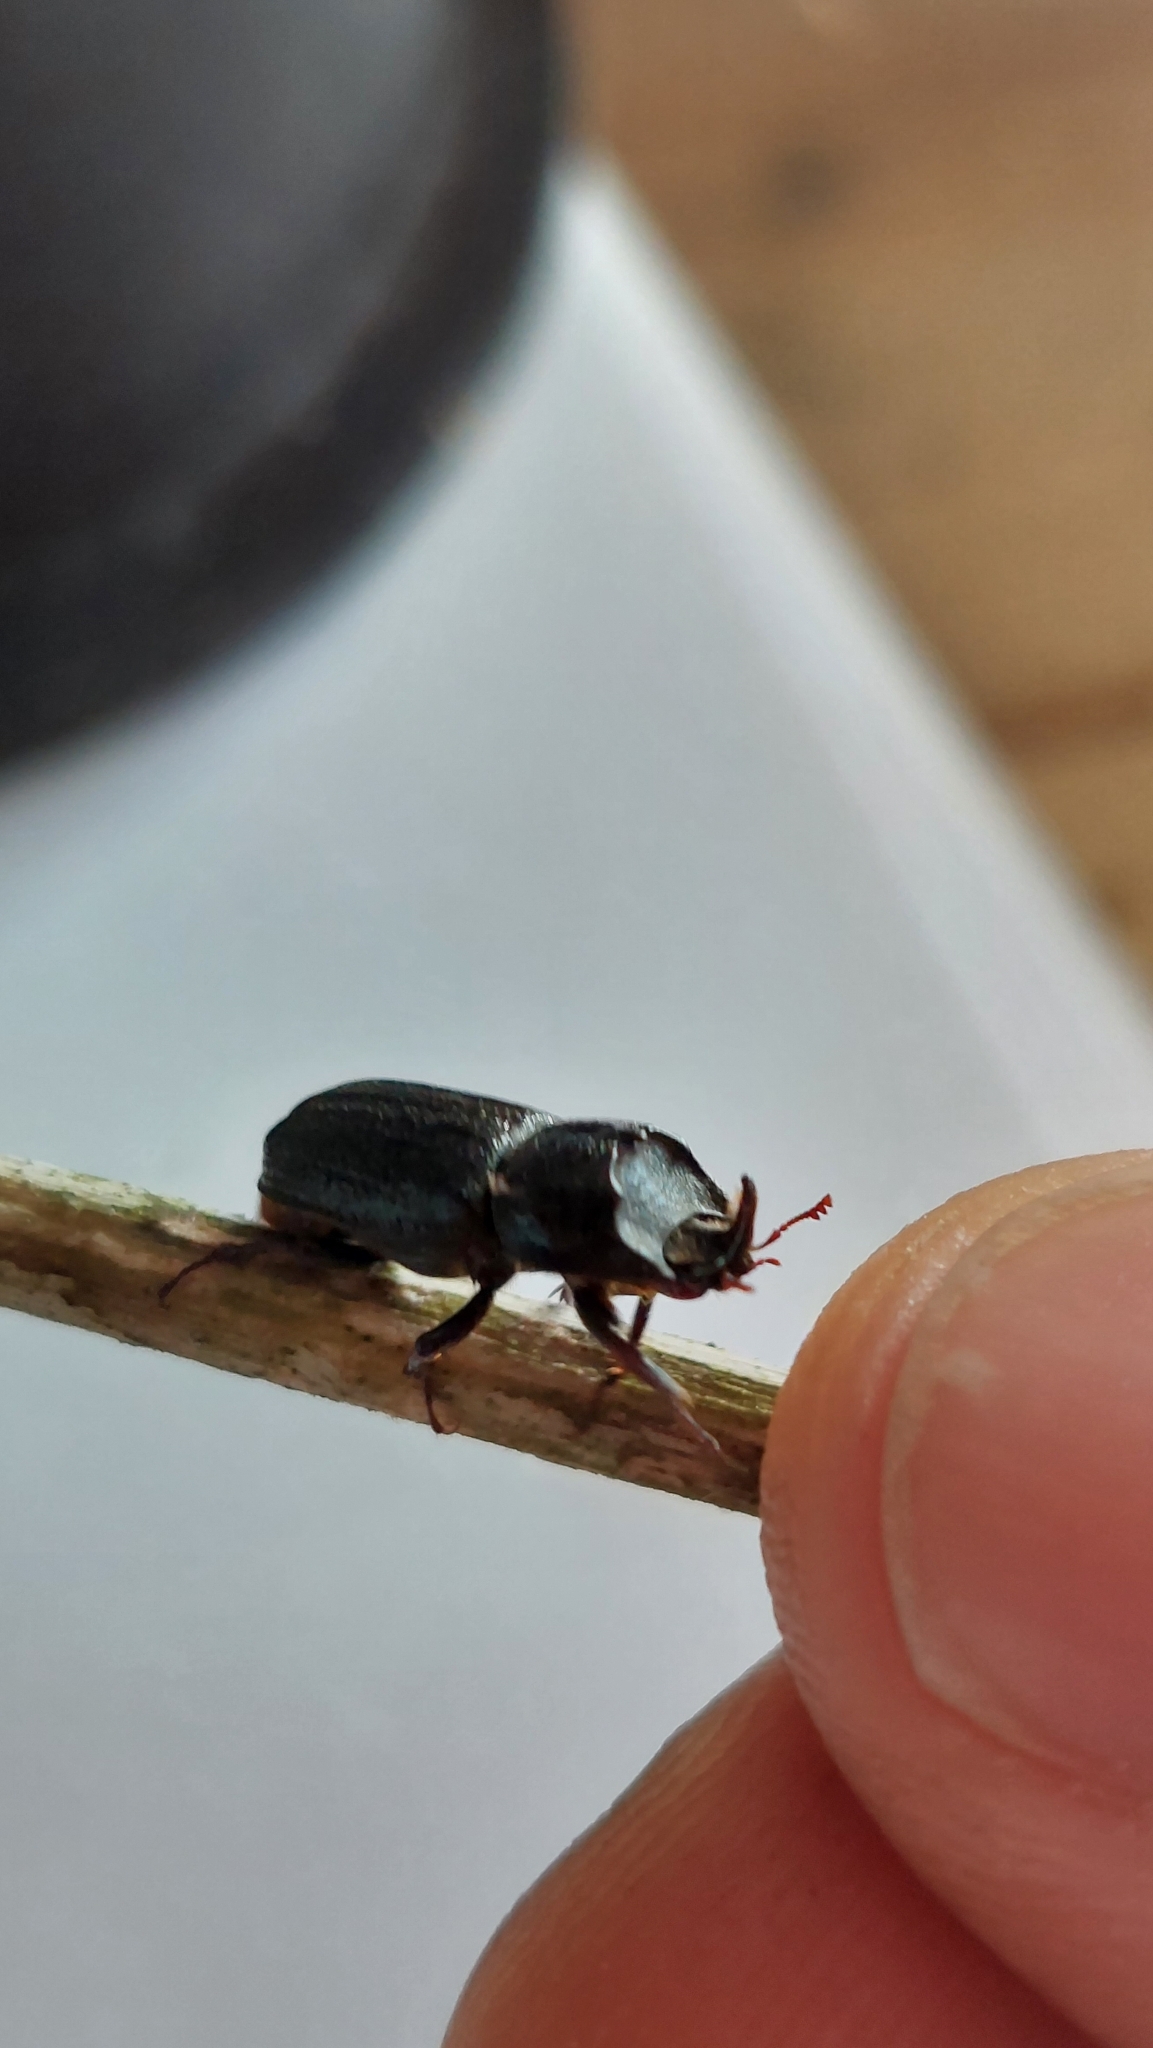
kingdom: Animalia
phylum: Arthropoda
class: Insecta
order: Coleoptera
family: Lucanidae
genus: Sinodendron
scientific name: Sinodendron cylindricum
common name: Rhinoceros beetle
